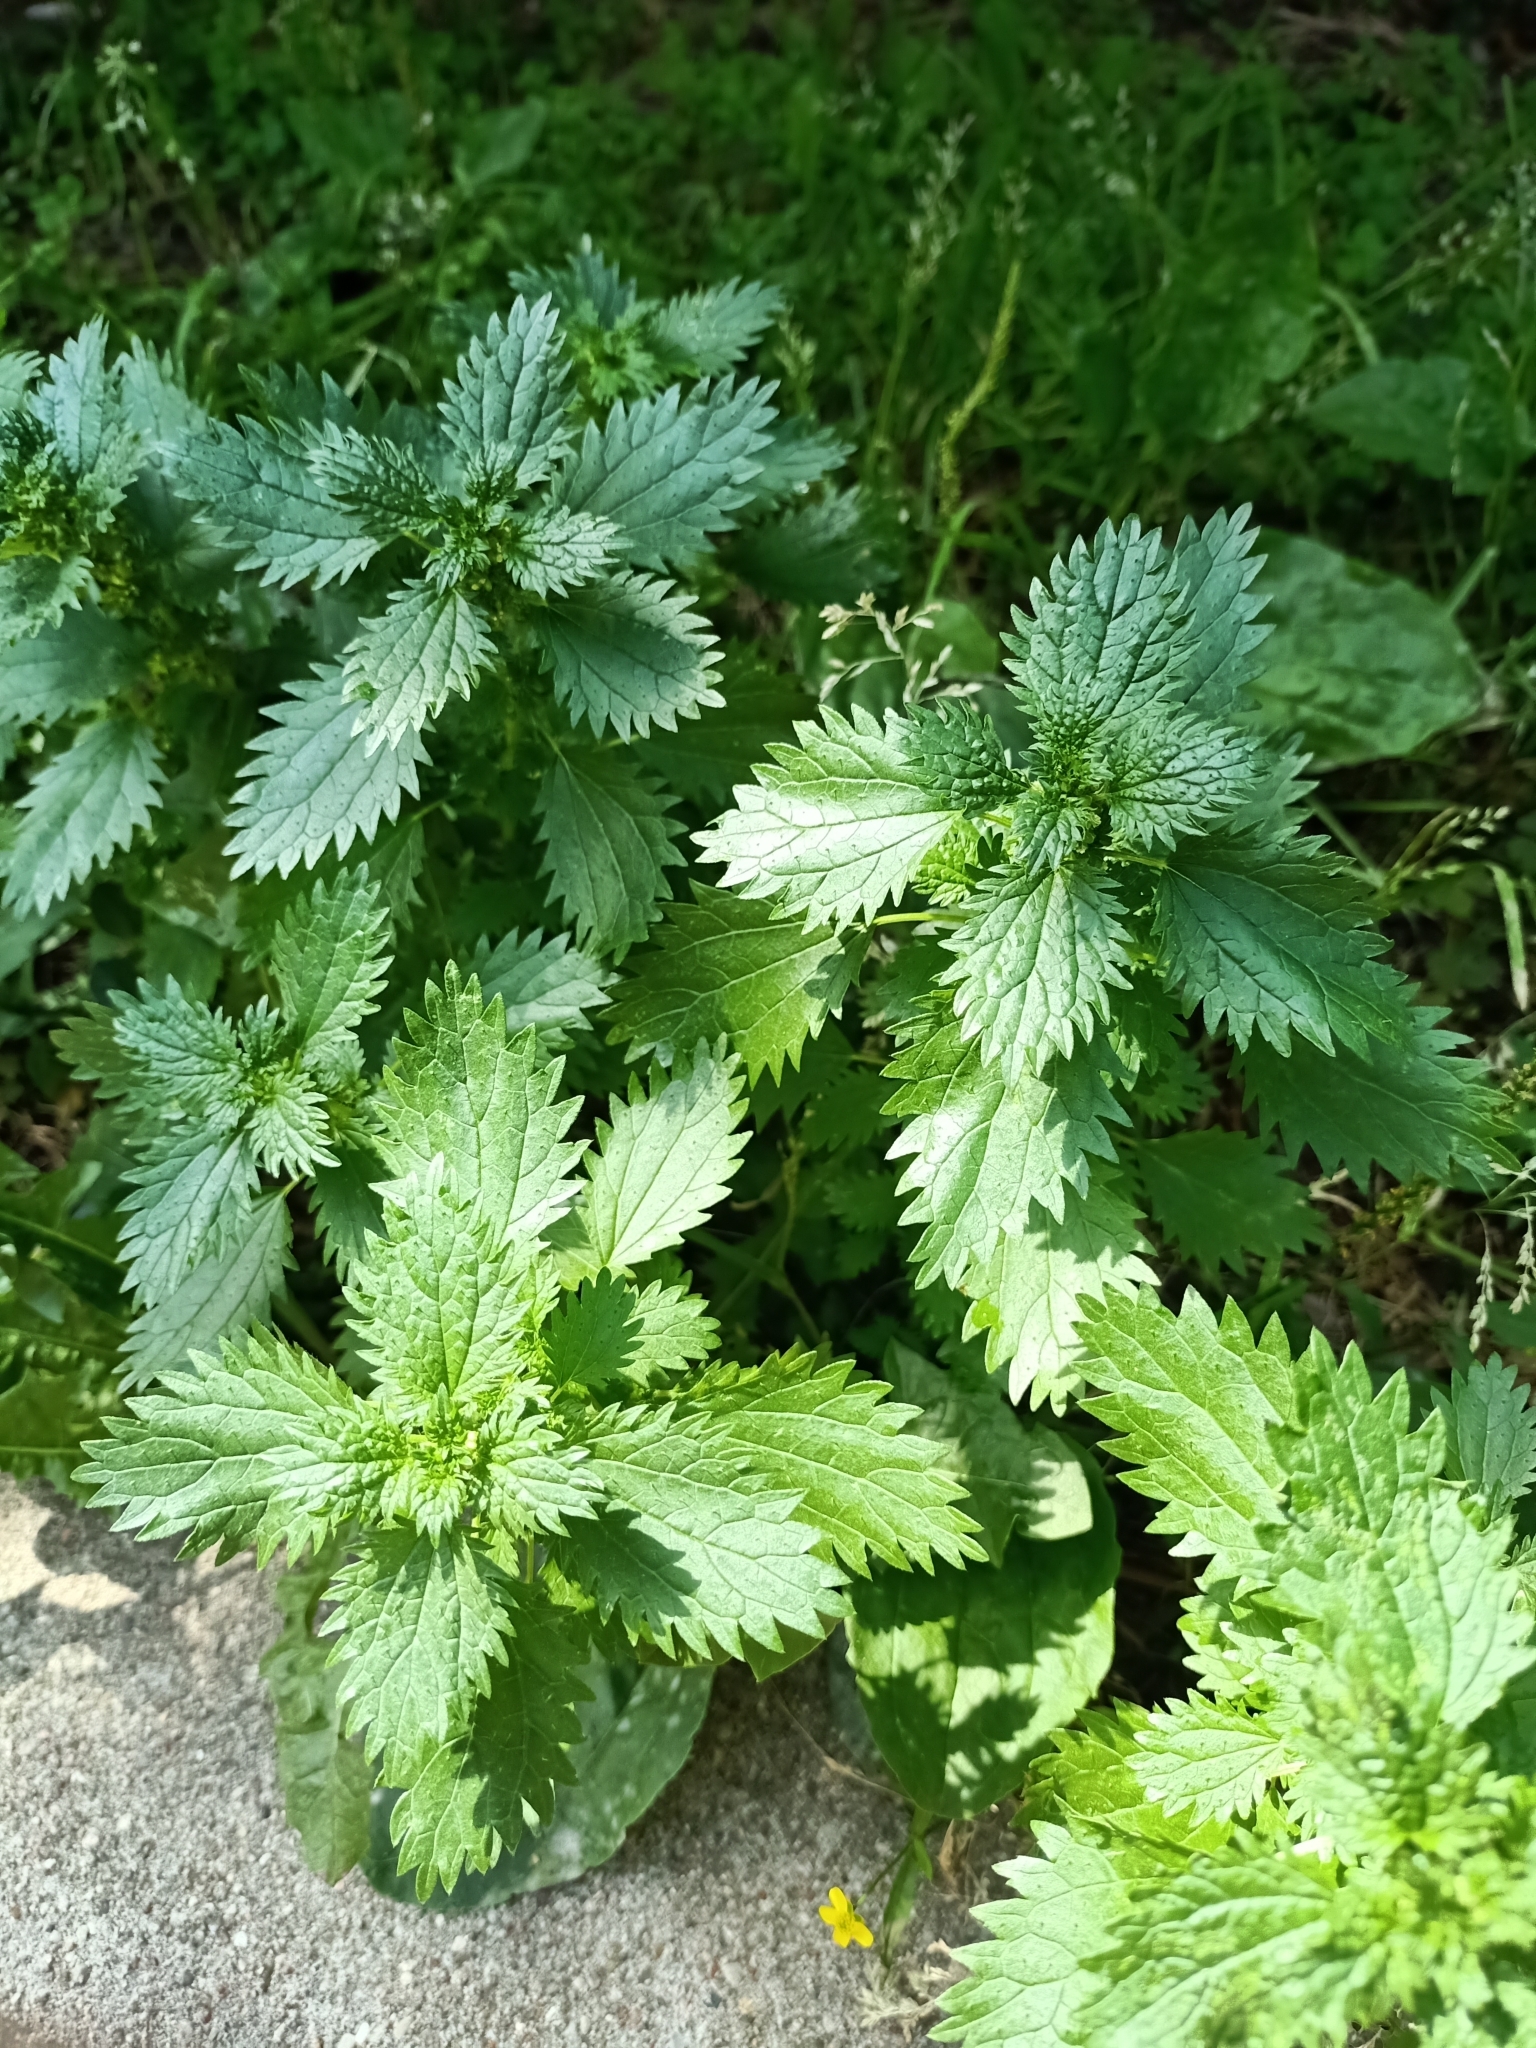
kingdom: Plantae
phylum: Tracheophyta
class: Magnoliopsida
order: Rosales
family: Urticaceae
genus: Urtica
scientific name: Urtica urens
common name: Dwarf nettle
